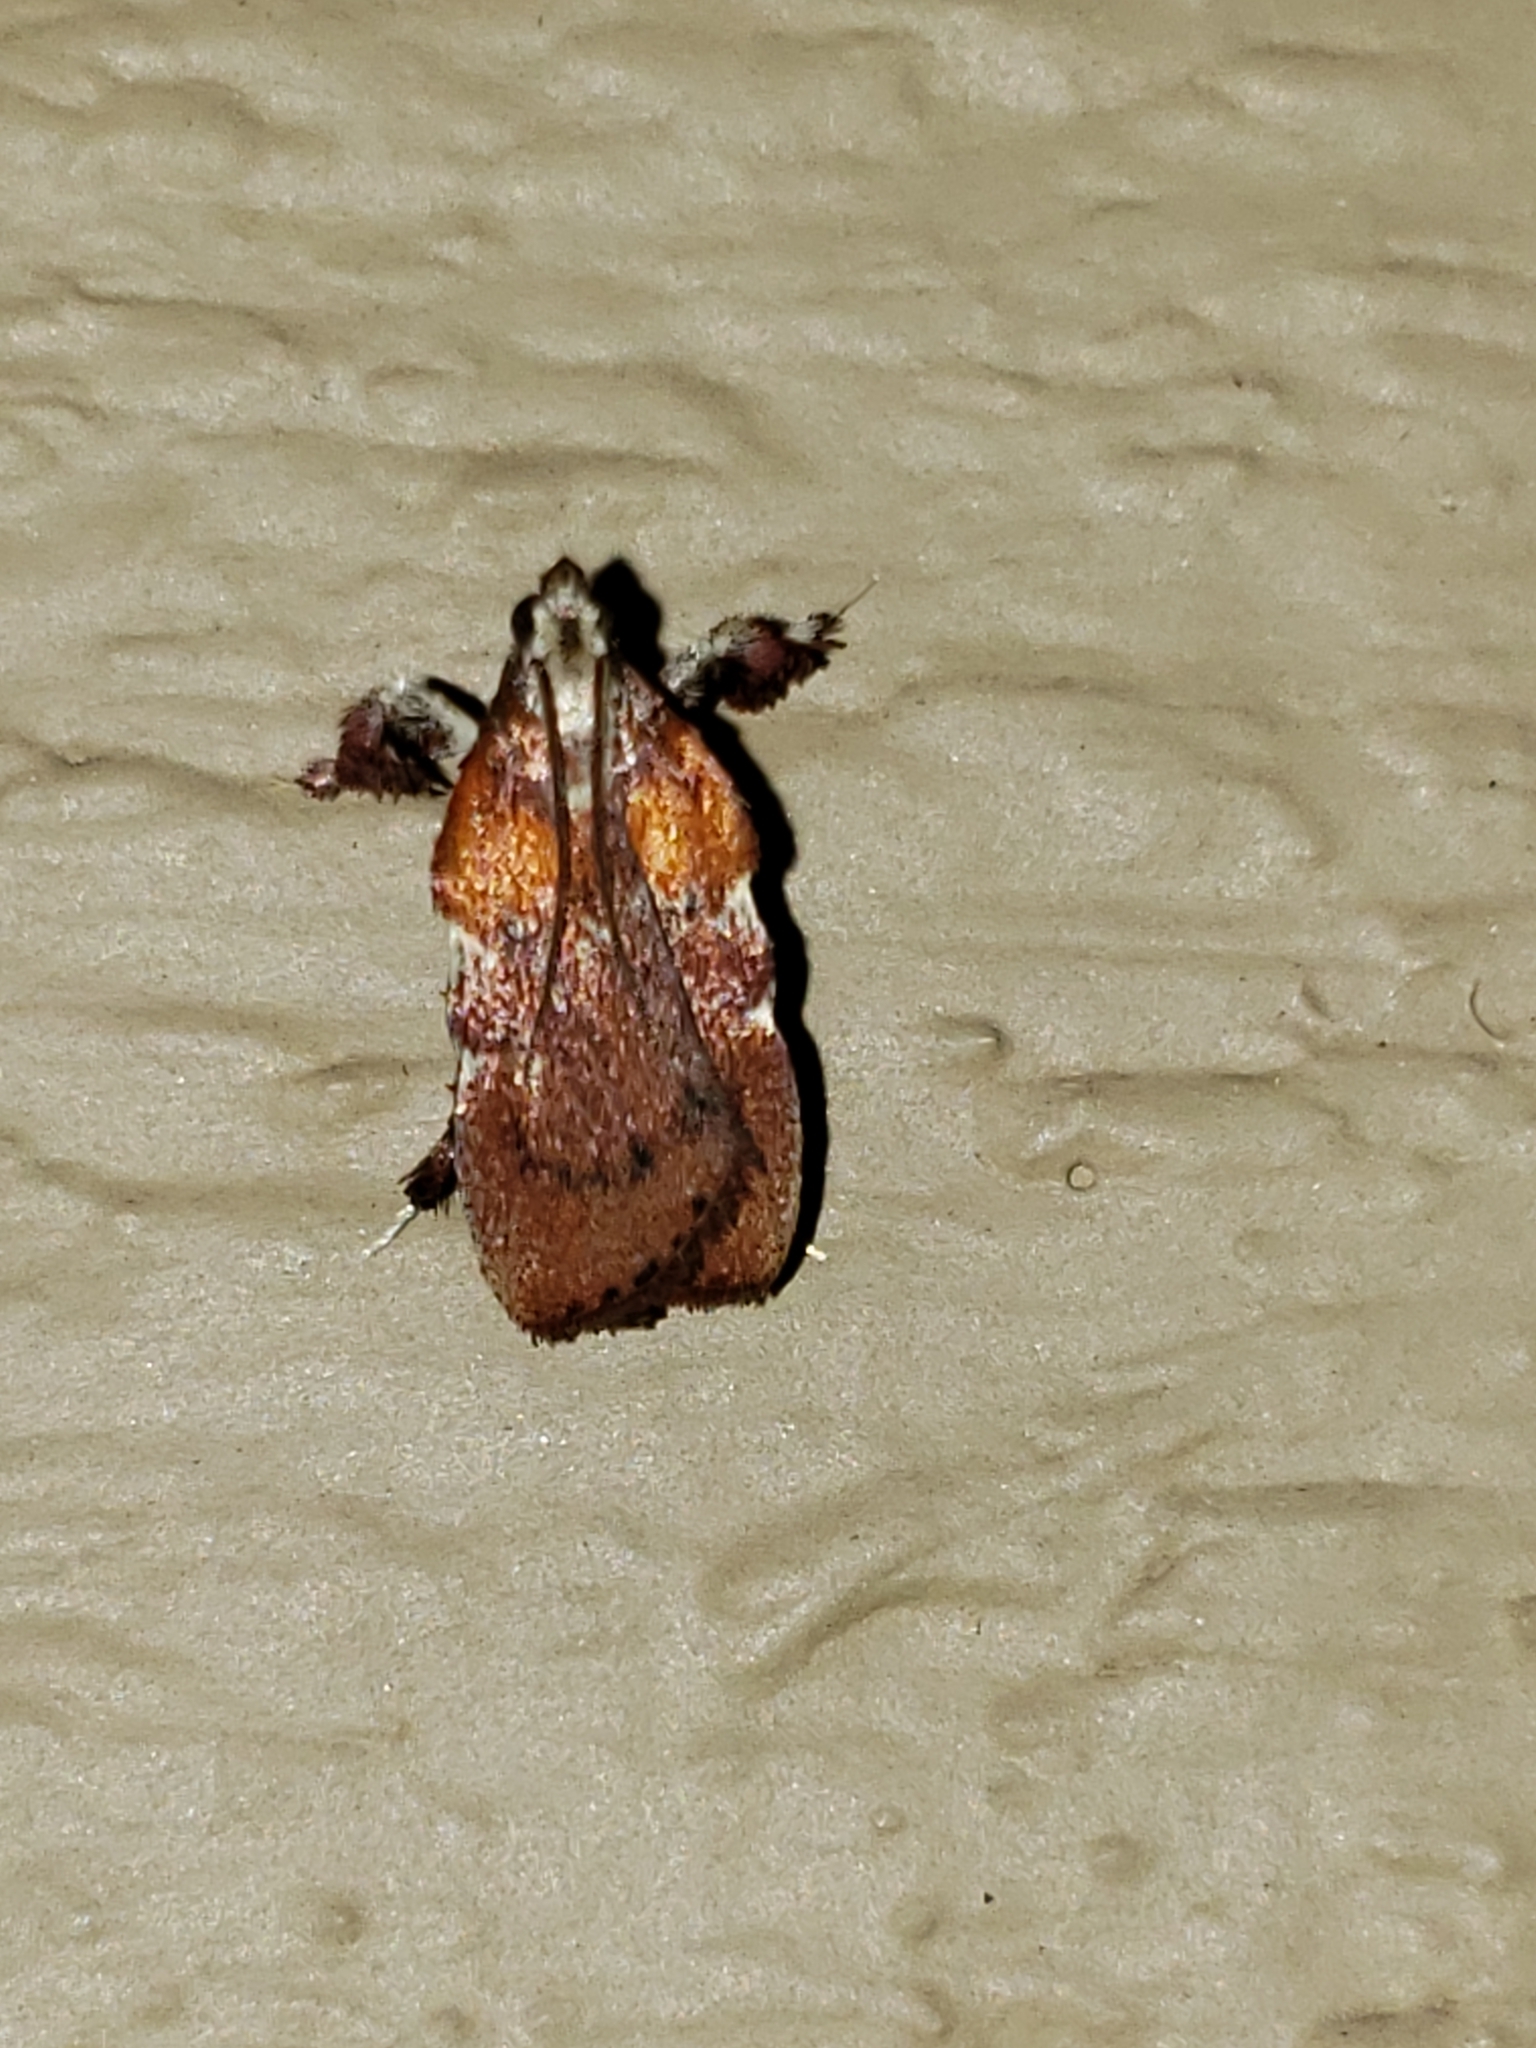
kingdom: Animalia
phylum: Arthropoda
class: Insecta
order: Lepidoptera
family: Pyralidae
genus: Galasa
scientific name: Galasa nigrinodis
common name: Boxwood leaftier moth
